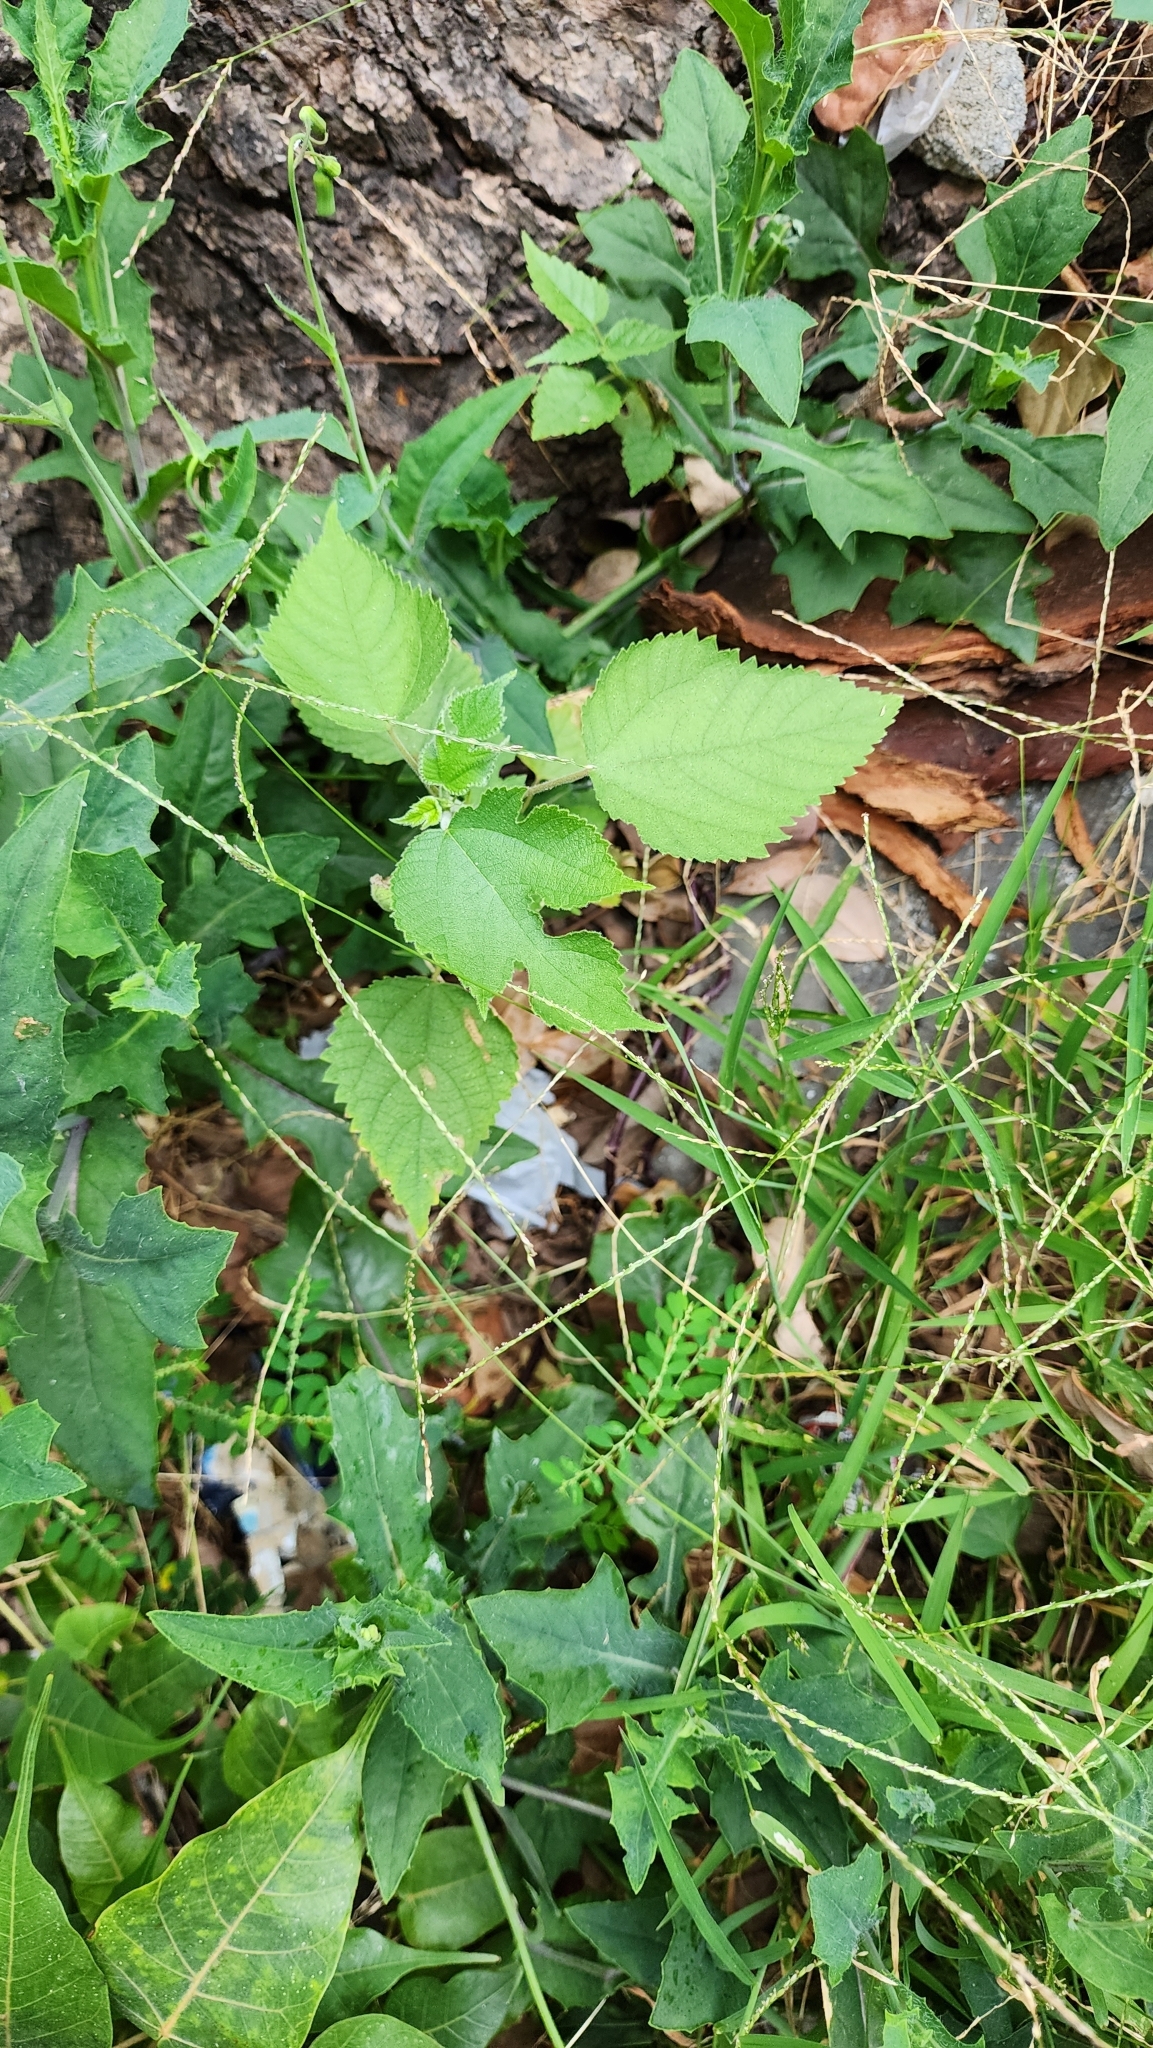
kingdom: Plantae
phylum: Tracheophyta
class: Magnoliopsida
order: Rosales
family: Moraceae
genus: Broussonetia
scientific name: Broussonetia papyrifera
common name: Paper mulberry
